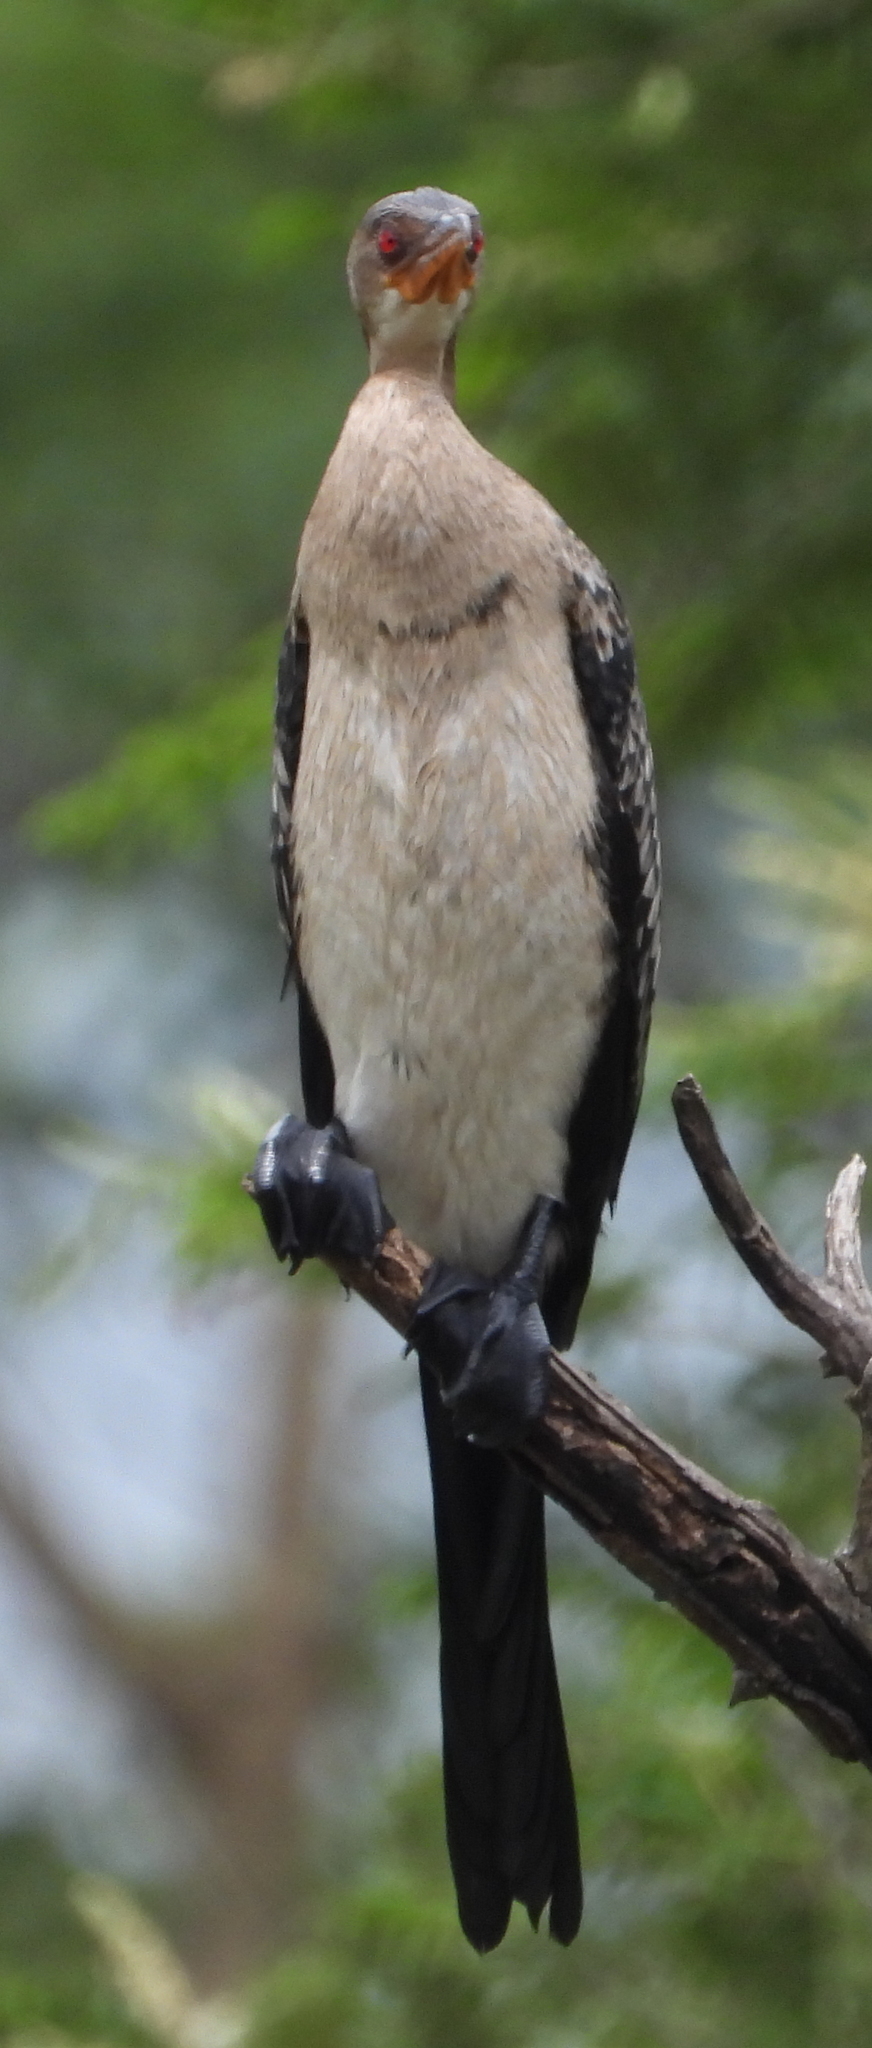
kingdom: Animalia
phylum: Chordata
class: Aves
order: Suliformes
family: Phalacrocoracidae
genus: Microcarbo
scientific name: Microcarbo africanus
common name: Long-tailed cormorant
